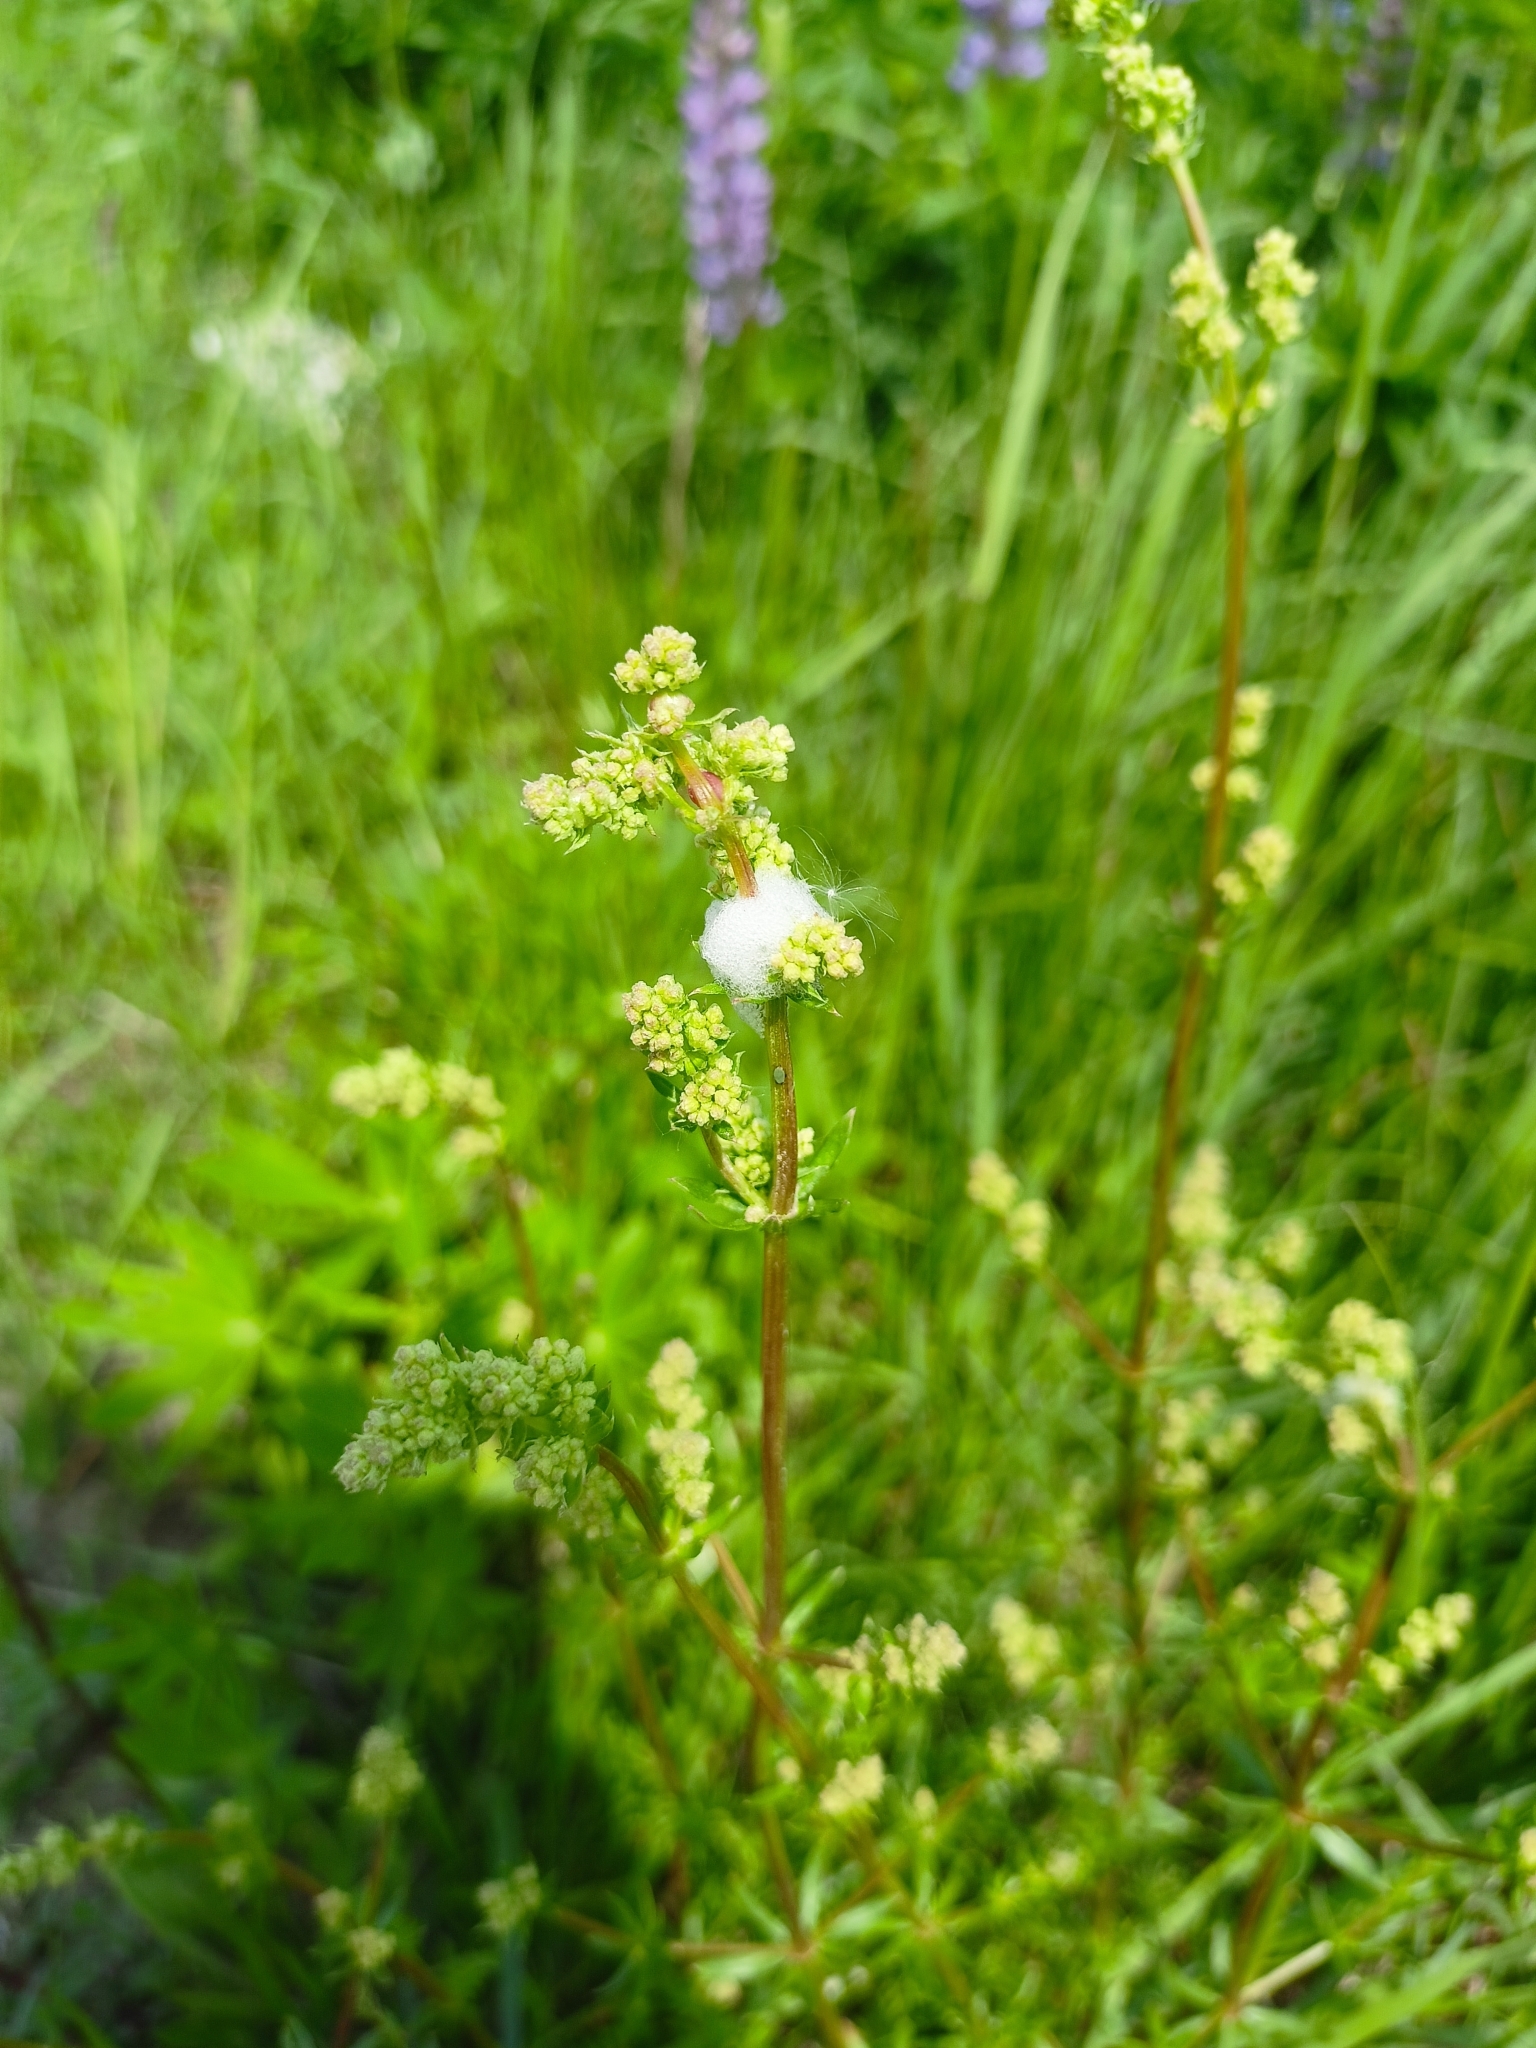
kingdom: Plantae
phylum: Tracheophyta
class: Magnoliopsida
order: Gentianales
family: Rubiaceae
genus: Galium
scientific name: Galium mollugo
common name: Hedge bedstraw
